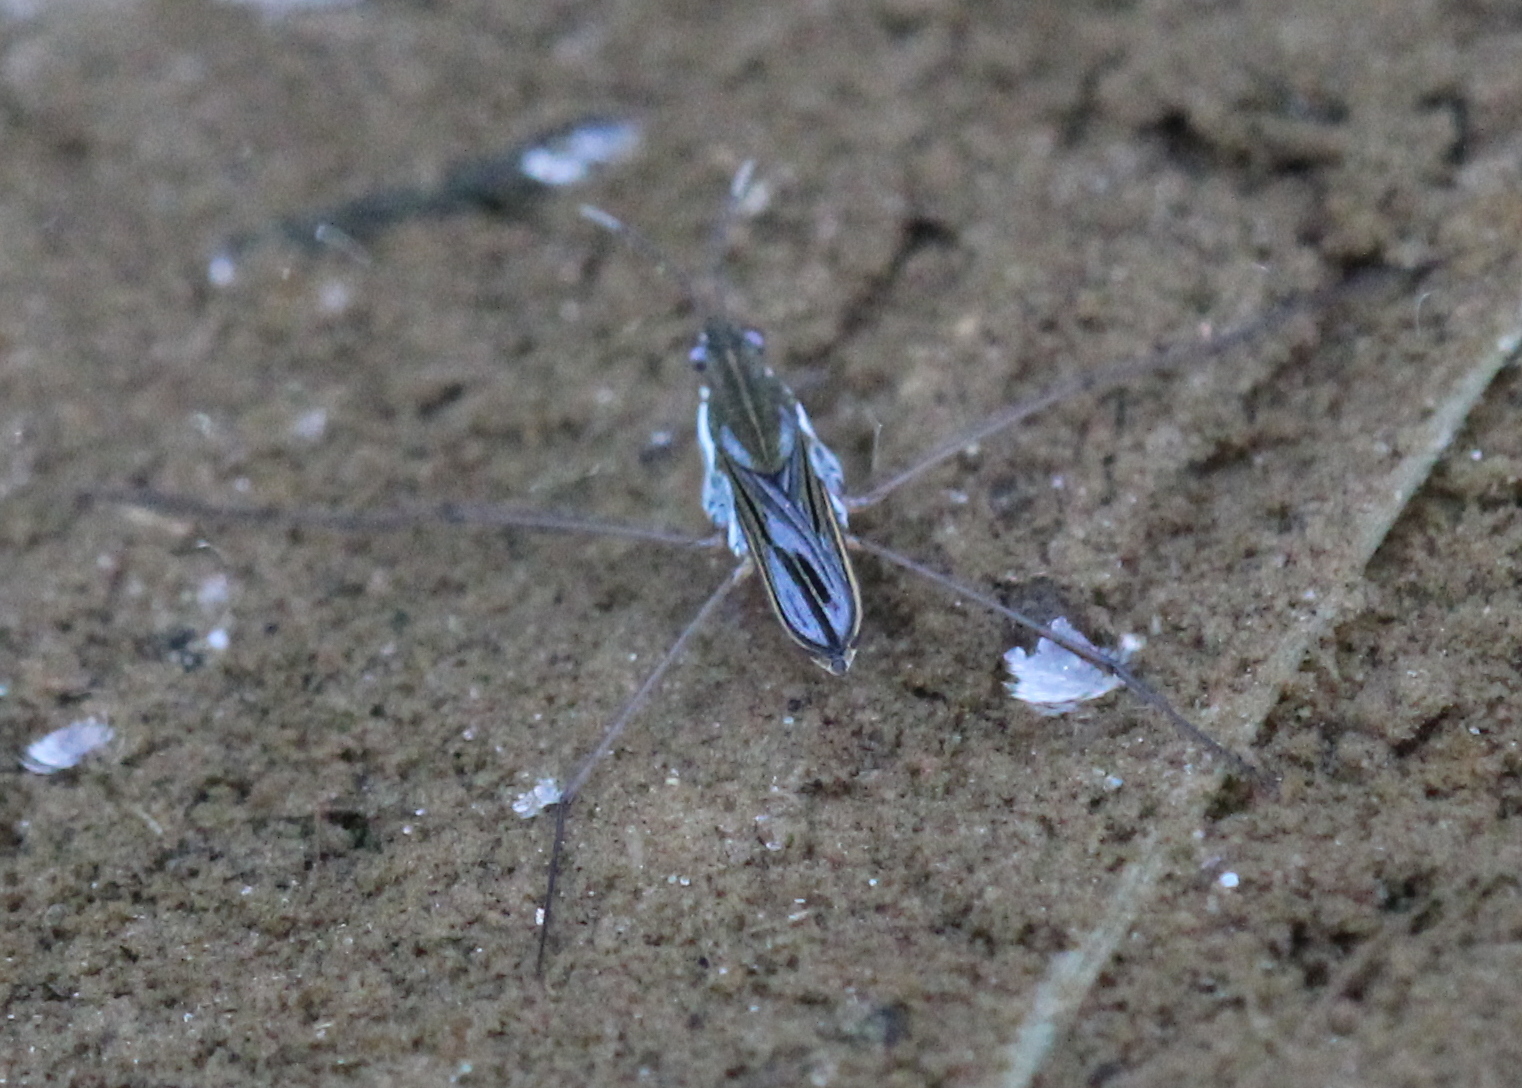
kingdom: Animalia
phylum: Arthropoda
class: Insecta
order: Hemiptera
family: Gerridae
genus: Gerris
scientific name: Gerris
